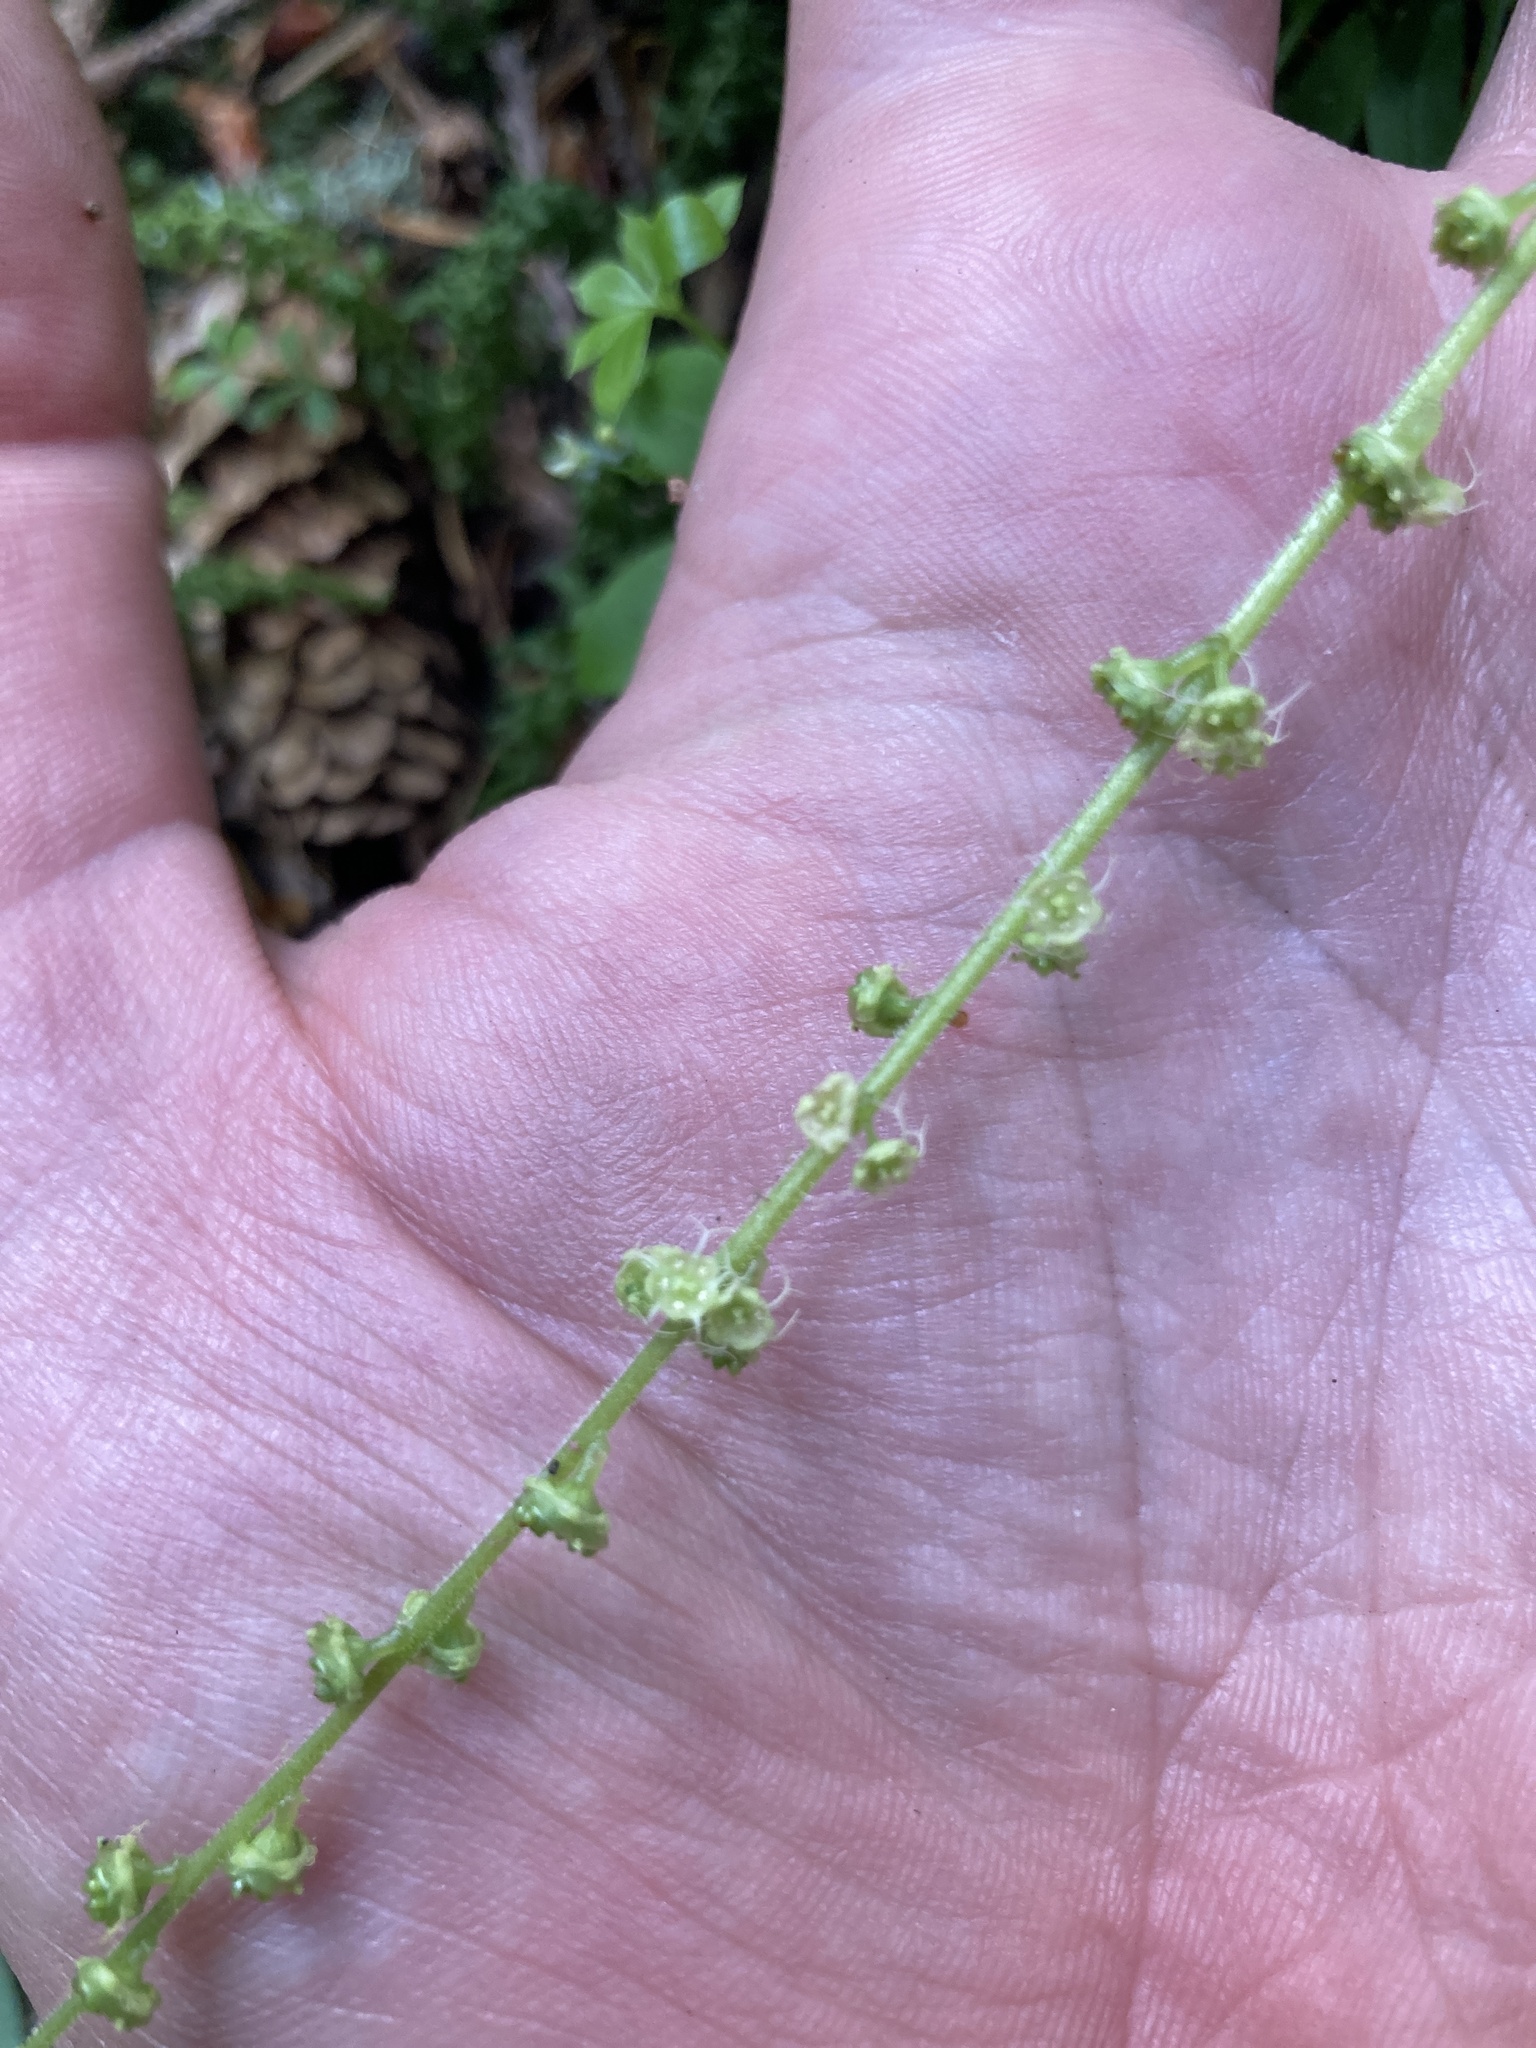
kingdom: Plantae
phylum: Tracheophyta
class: Magnoliopsida
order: Saxifragales
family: Saxifragaceae
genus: Brewerimitella
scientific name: Brewerimitella ovalis
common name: Coastal bishop's-cap
